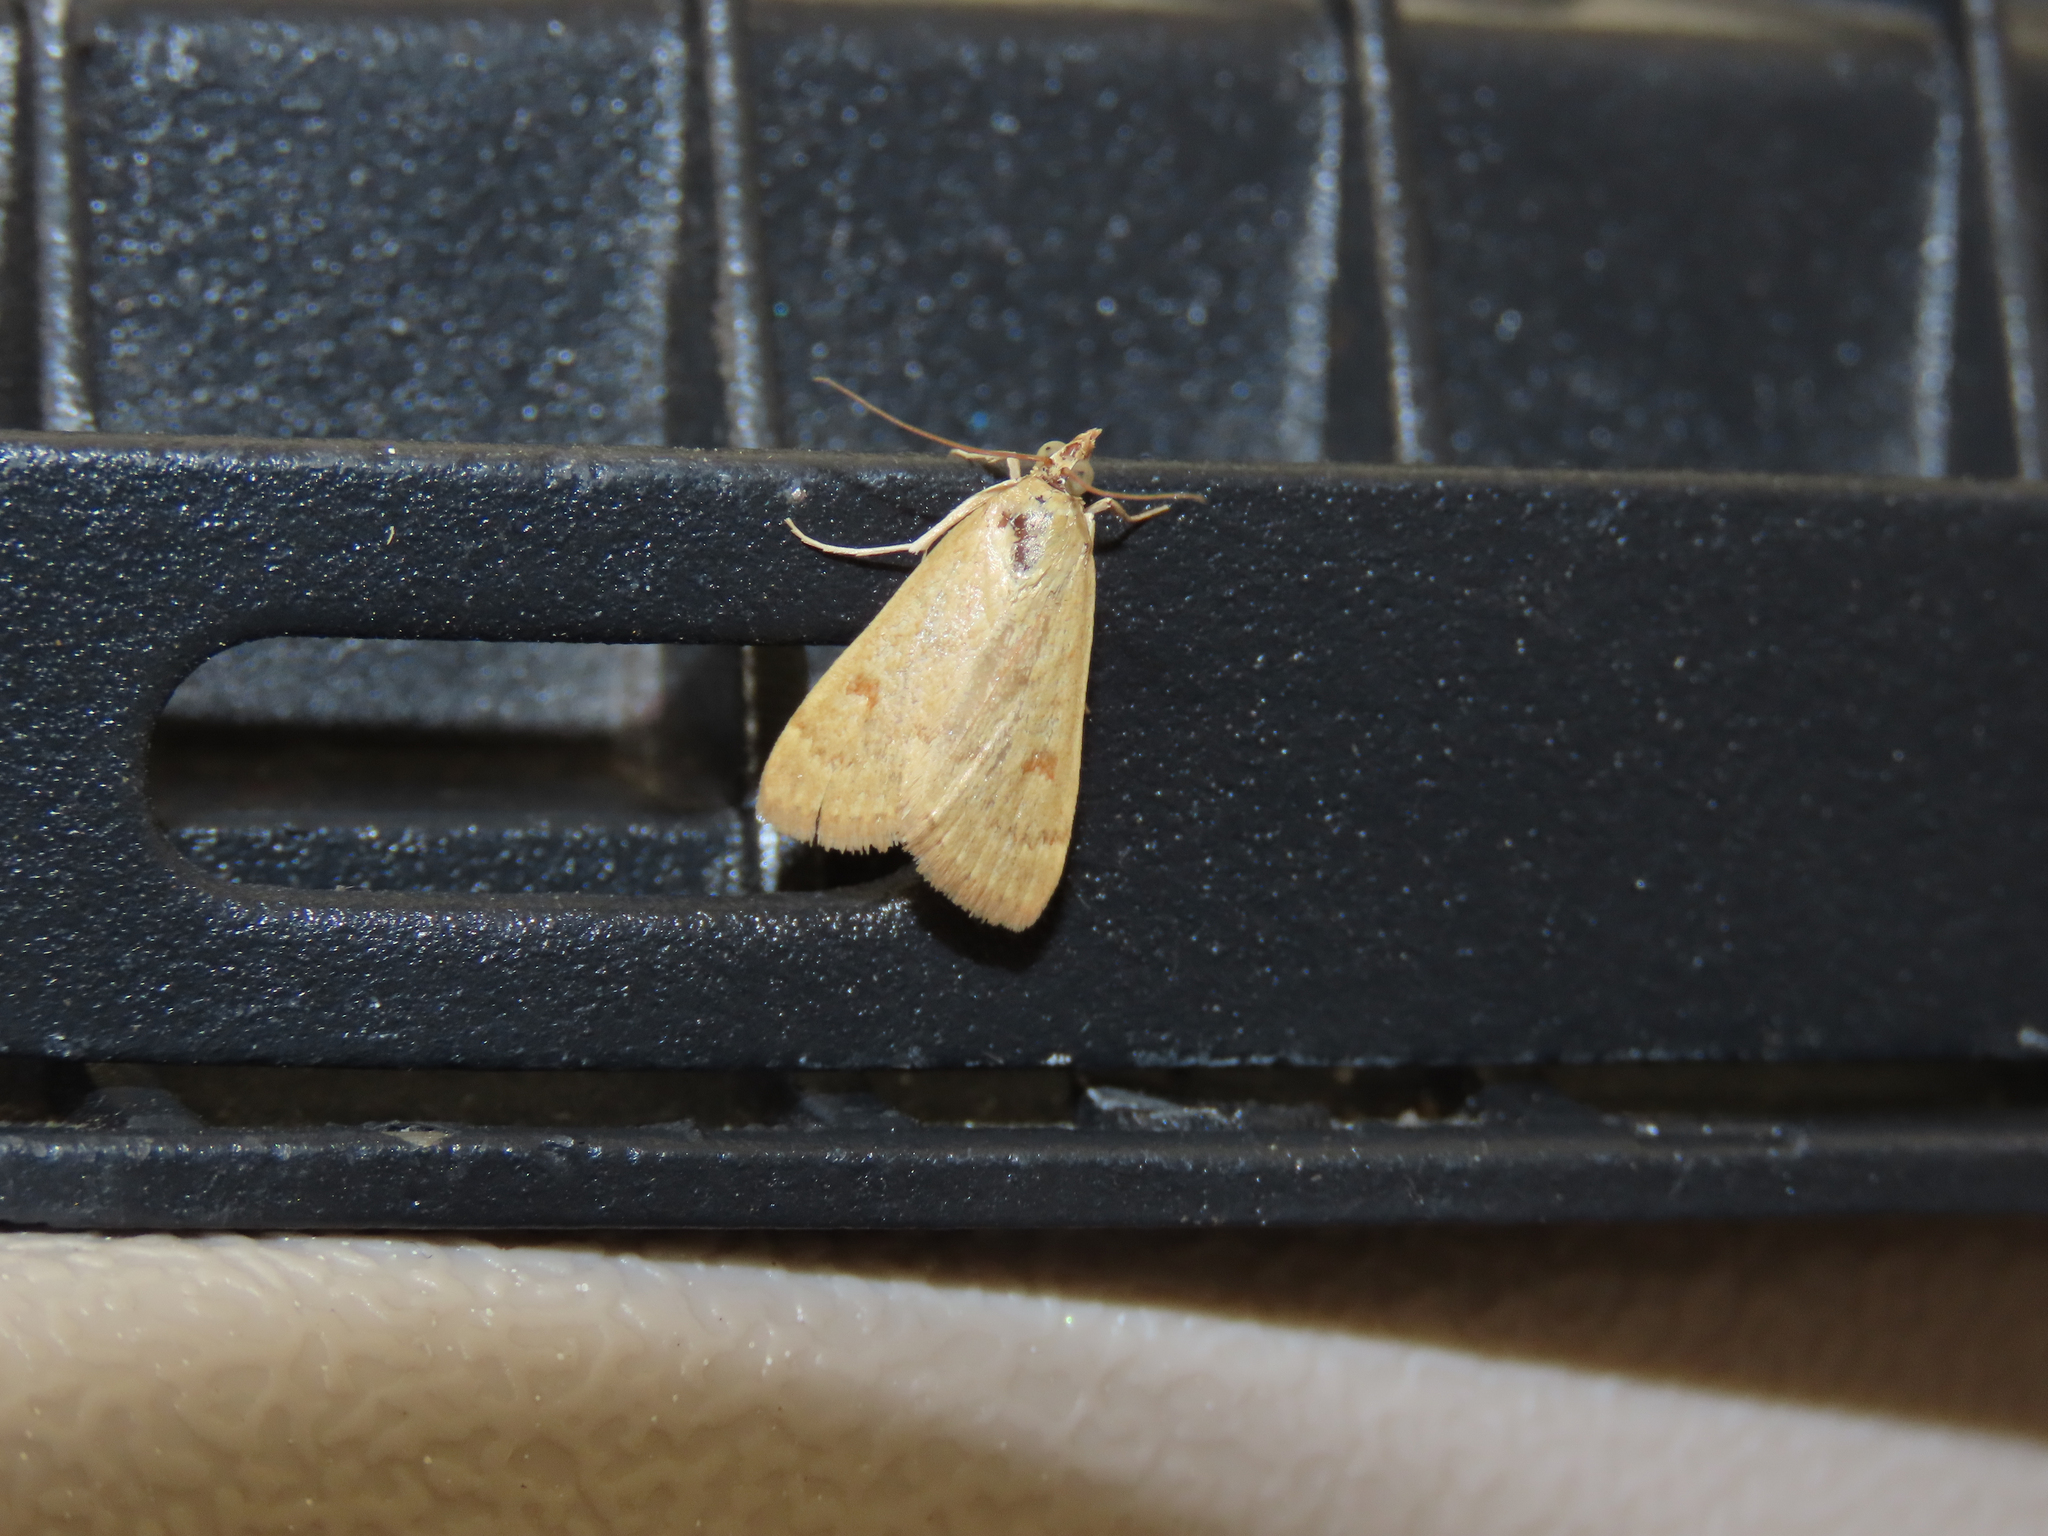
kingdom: Animalia
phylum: Arthropoda
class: Insecta
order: Lepidoptera
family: Crambidae
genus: Achyra
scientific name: Achyra rantalis
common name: Garden webworm
